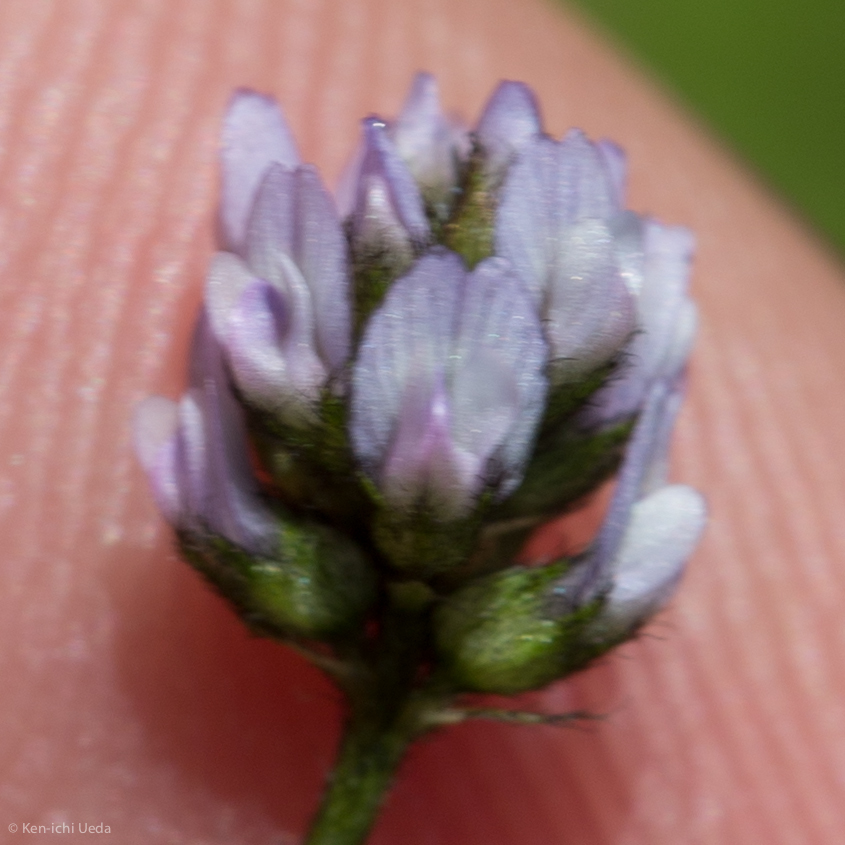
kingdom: Plantae
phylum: Tracheophyta
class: Magnoliopsida
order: Fabales
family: Fabaceae
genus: Astragalus
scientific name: Astragalus gambelianus
